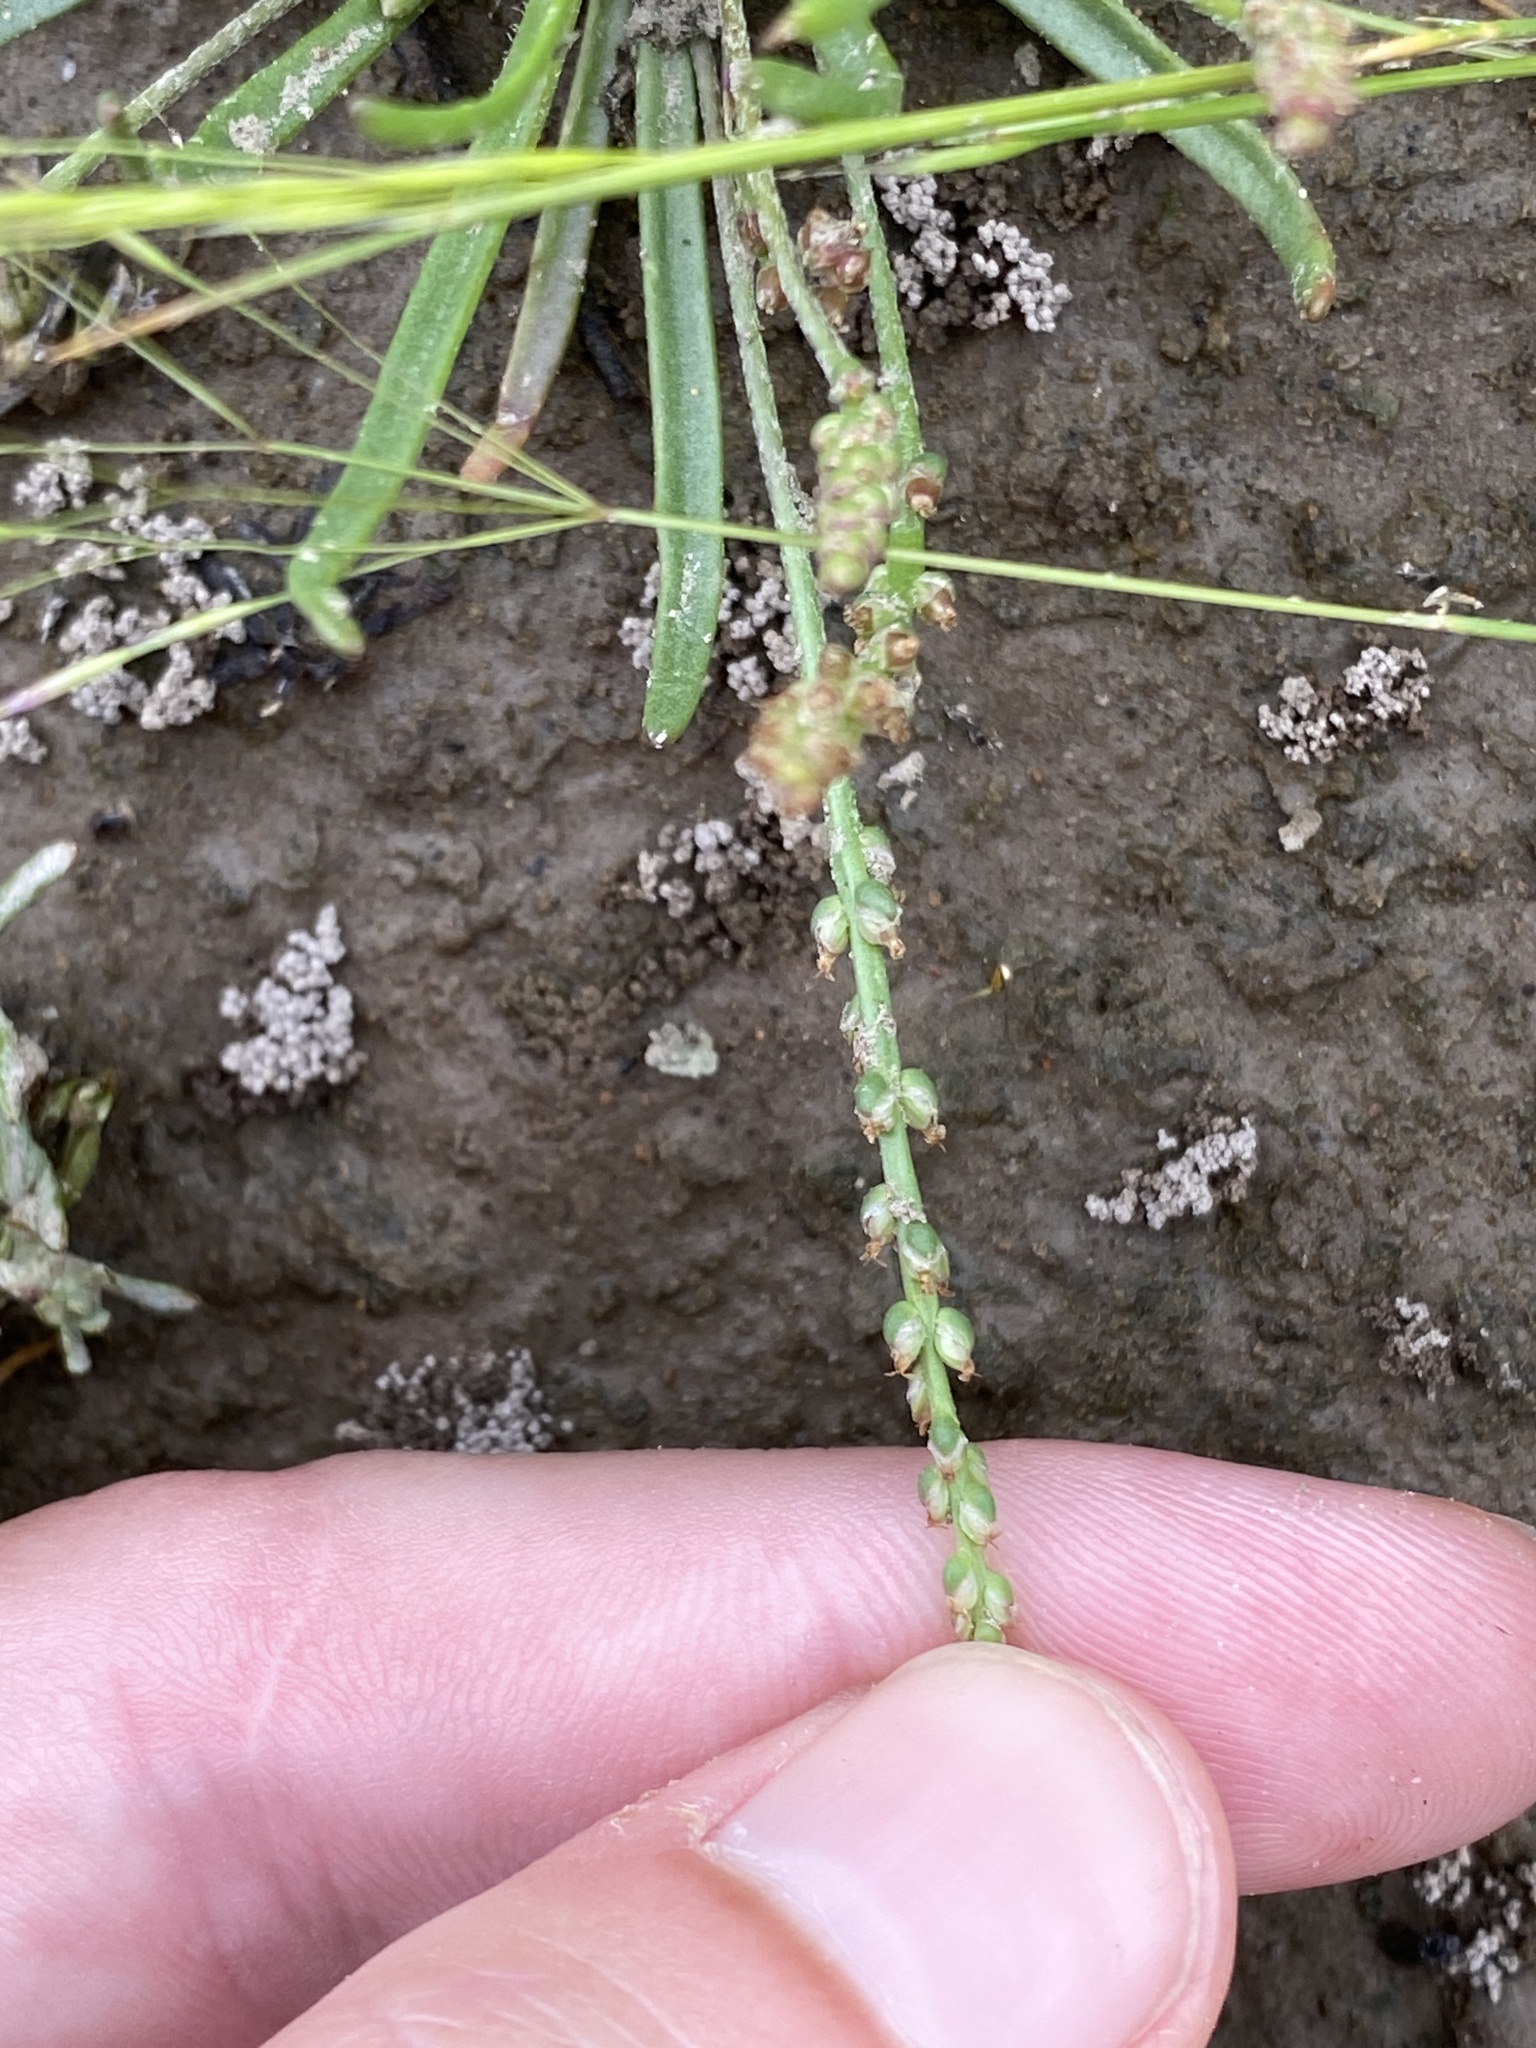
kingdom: Plantae
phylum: Tracheophyta
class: Magnoliopsida
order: Lamiales
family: Plantaginaceae
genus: Plantago
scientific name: Plantago elongata
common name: Linear-leaved plantain
